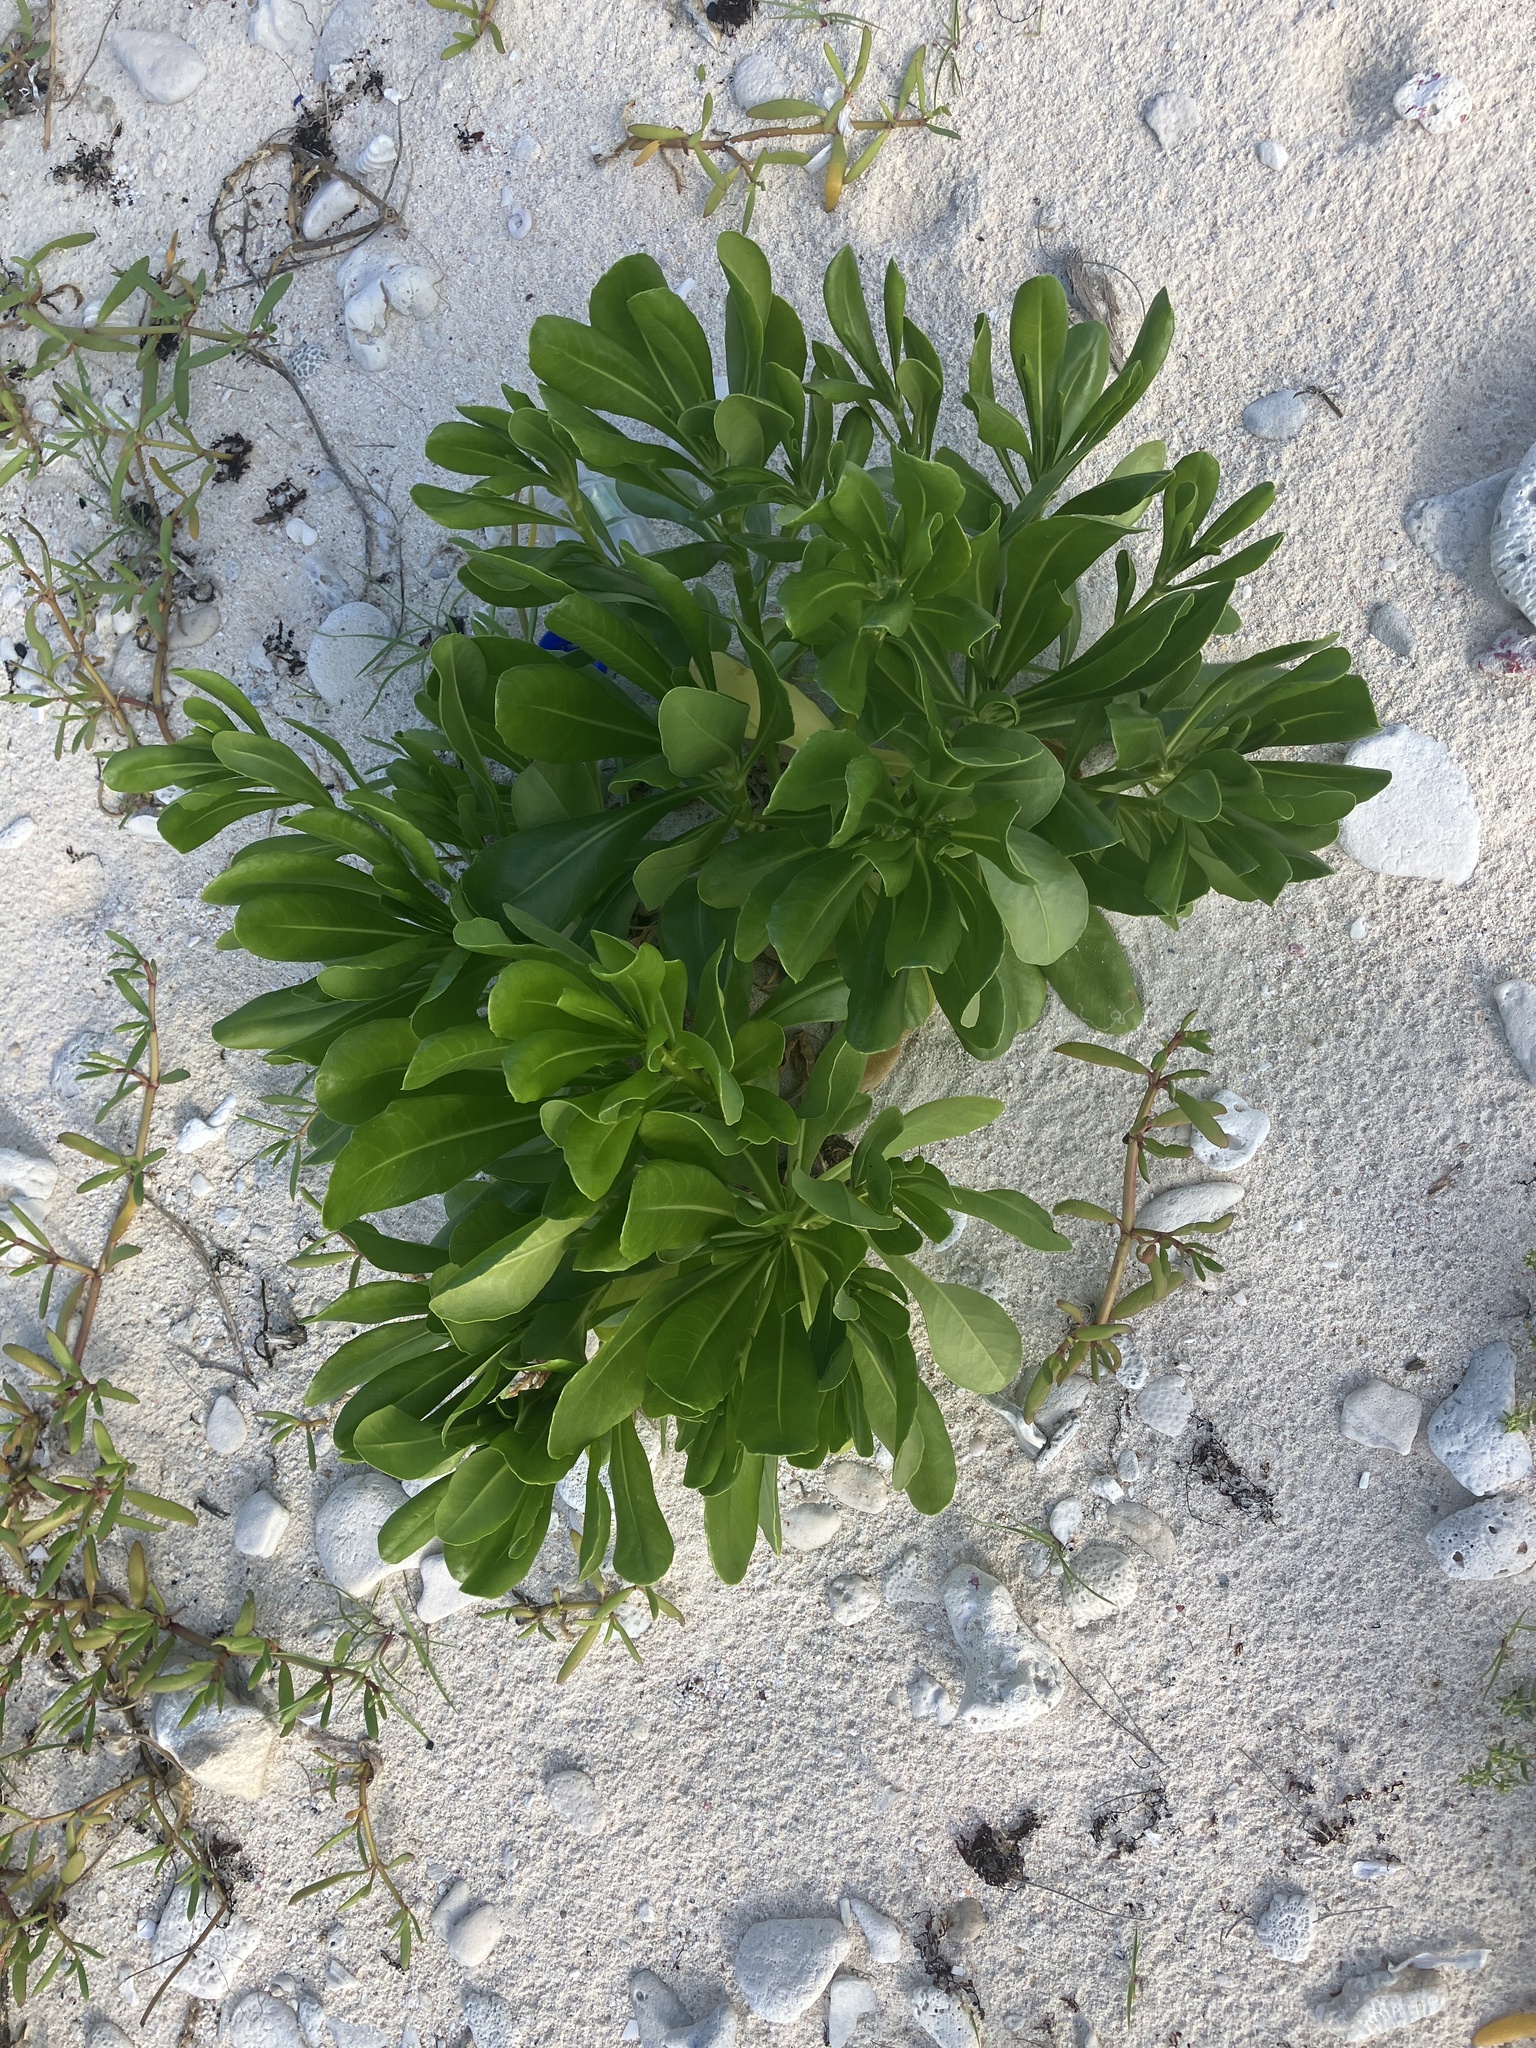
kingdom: Plantae
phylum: Tracheophyta
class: Magnoliopsida
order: Asterales
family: Goodeniaceae
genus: Scaevola
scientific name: Scaevola taccada
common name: Sea lettucetree
